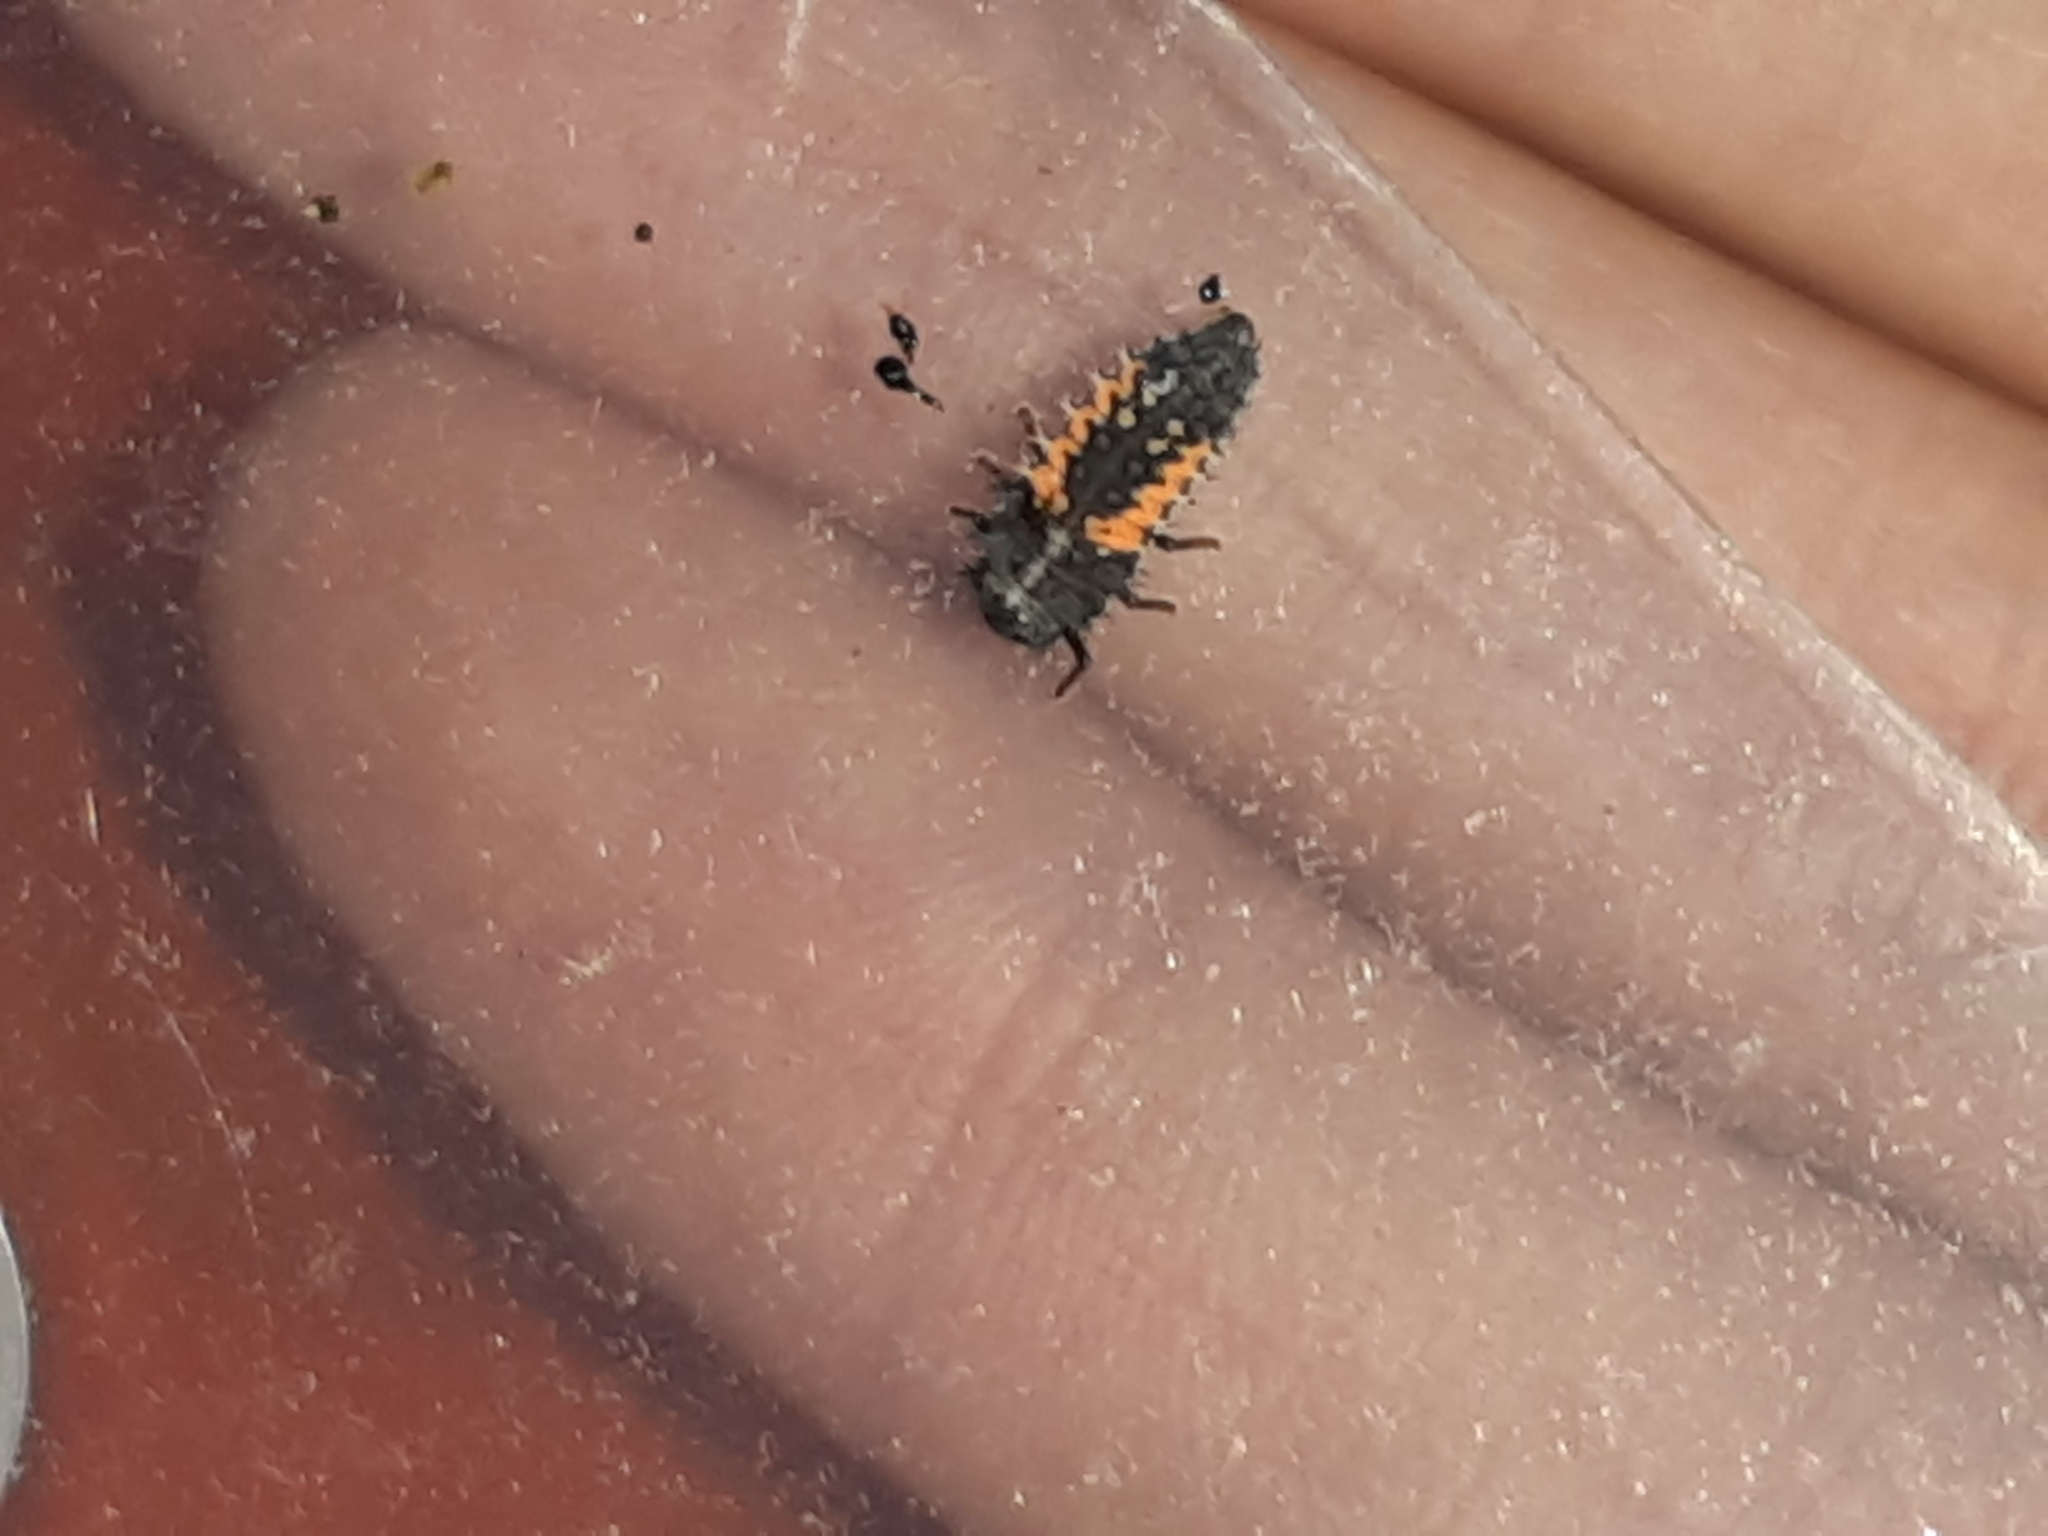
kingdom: Animalia
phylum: Arthropoda
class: Insecta
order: Coleoptera
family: Coccinellidae
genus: Harmonia
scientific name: Harmonia axyridis
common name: Harlequin ladybird
